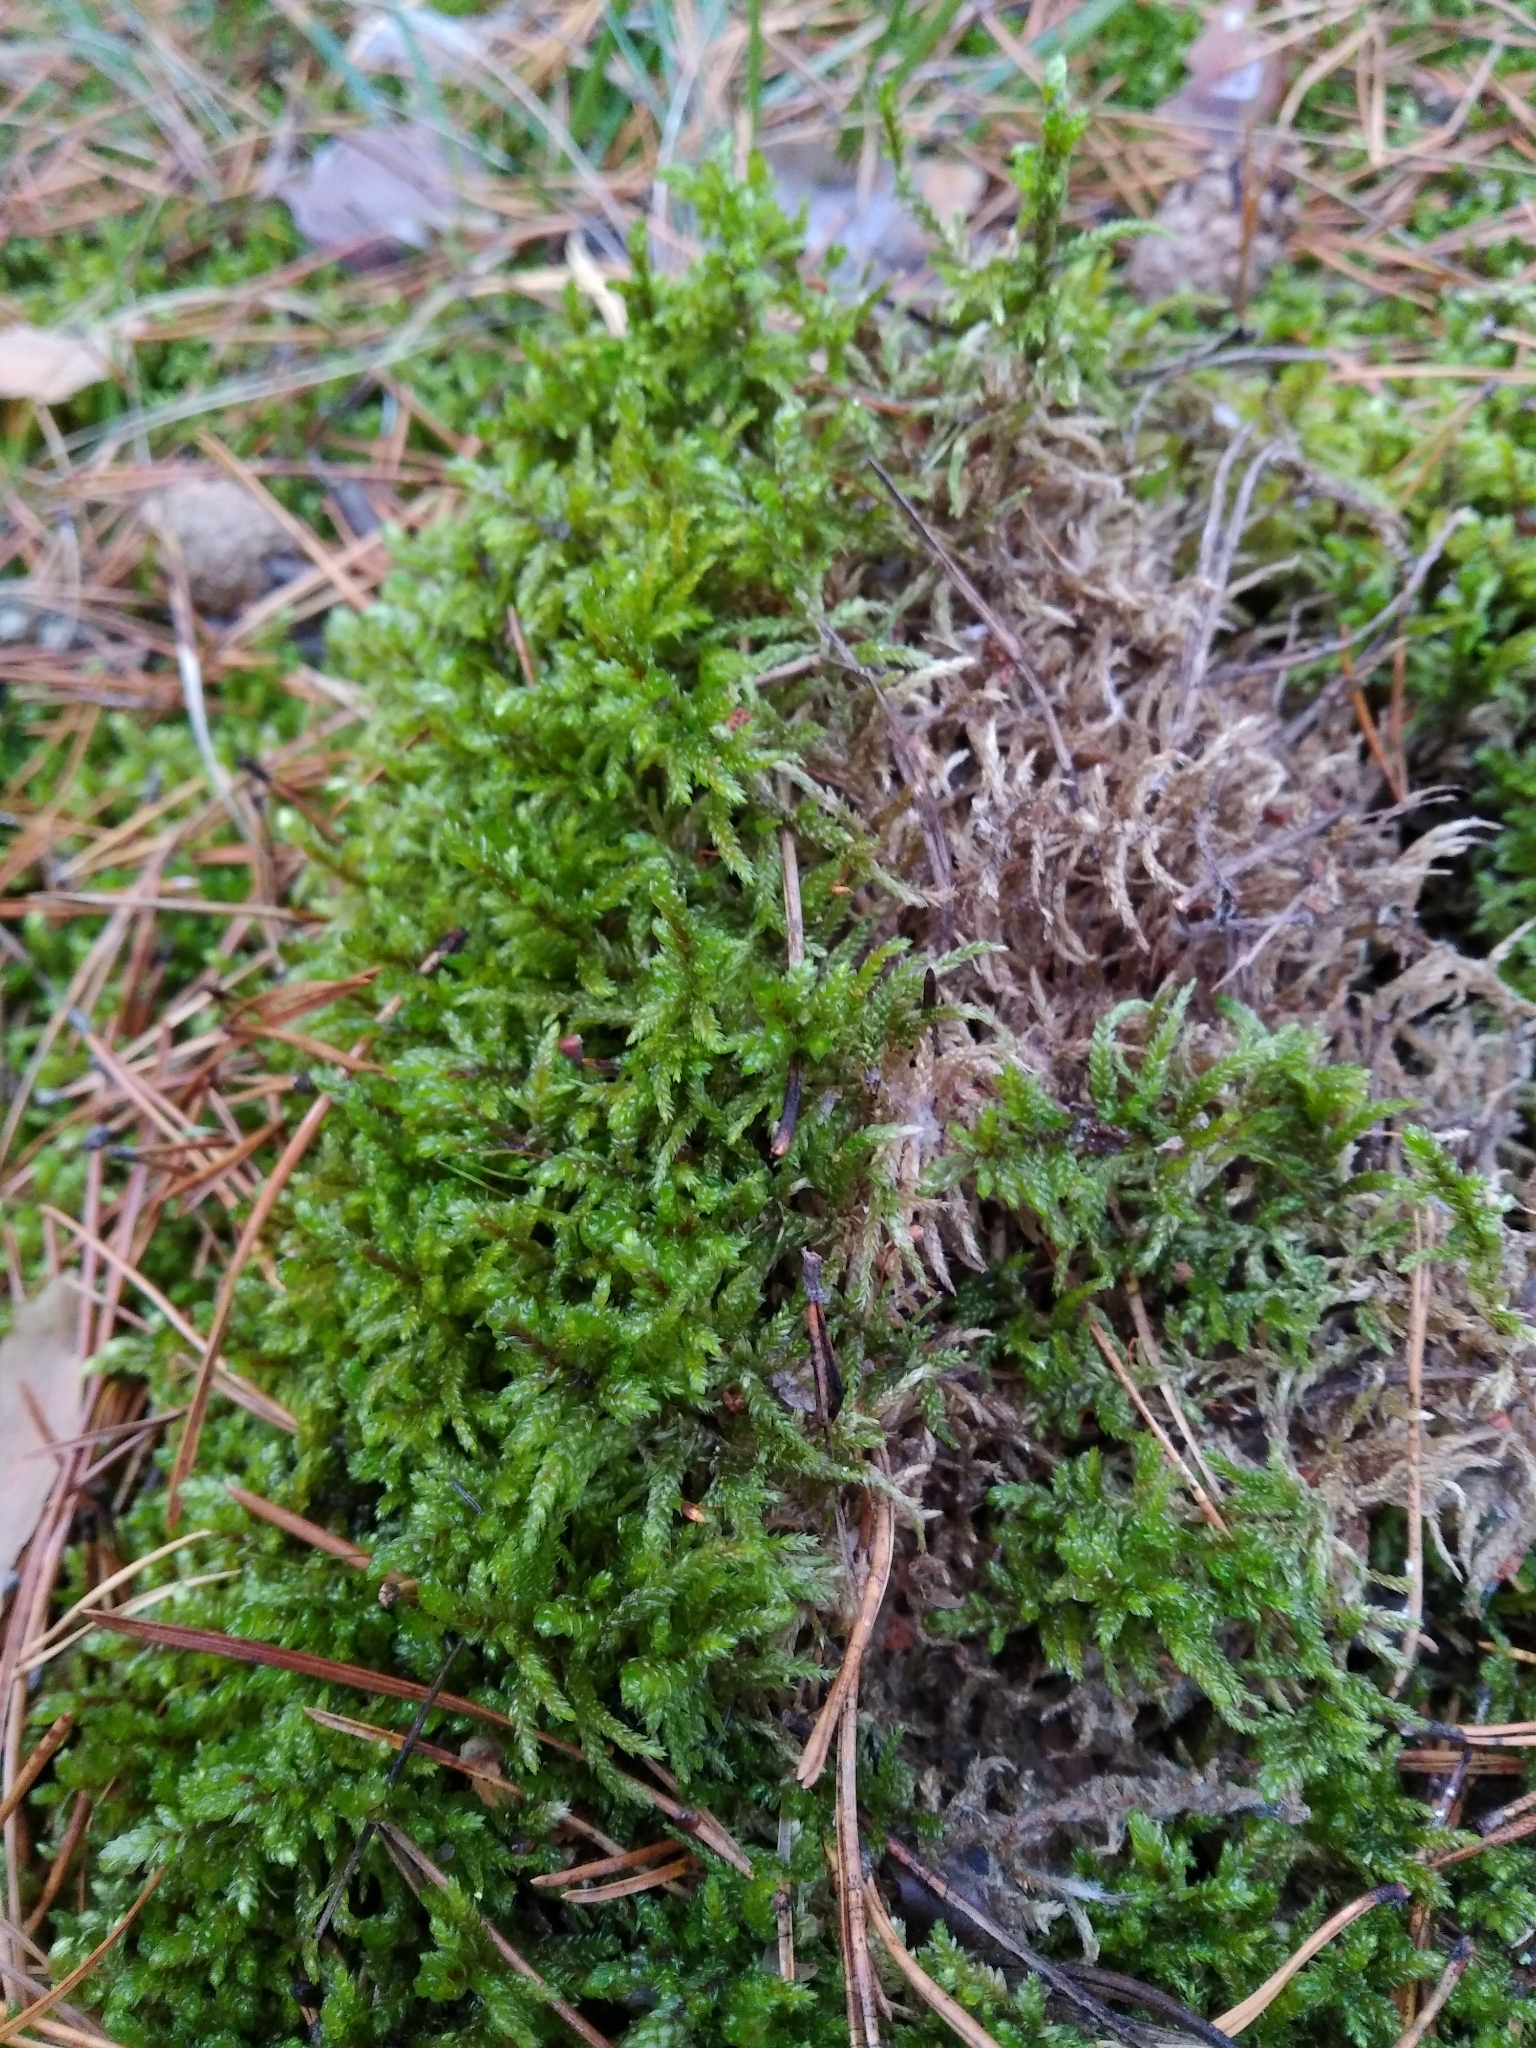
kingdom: Plantae
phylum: Bryophyta
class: Bryopsida
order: Hypnales
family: Hylocomiaceae
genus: Pleurozium
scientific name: Pleurozium schreberi
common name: Red-stemmed feather moss
